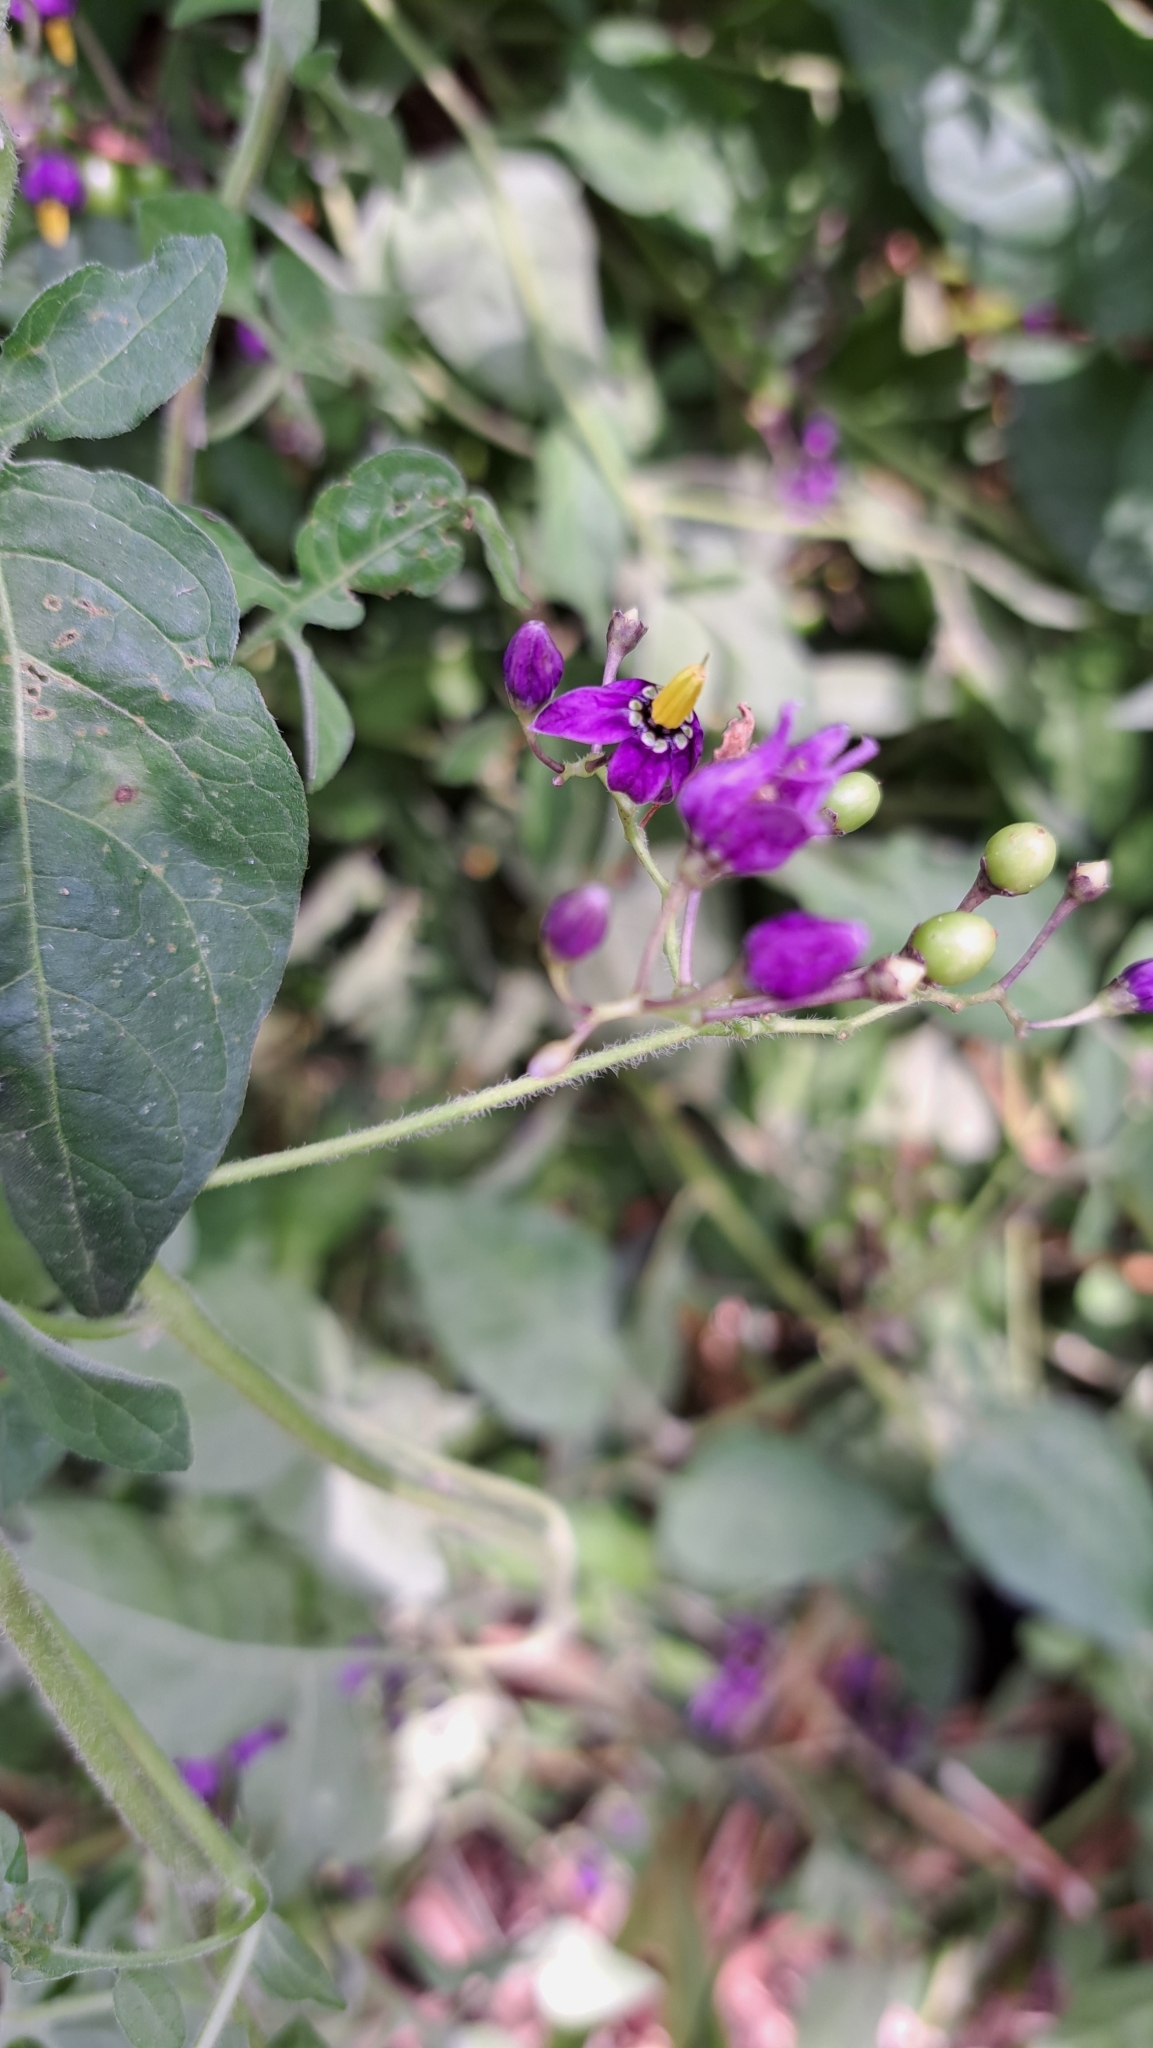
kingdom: Plantae
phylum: Tracheophyta
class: Magnoliopsida
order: Solanales
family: Solanaceae
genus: Solanum
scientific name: Solanum dulcamara
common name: Climbing nightshade
